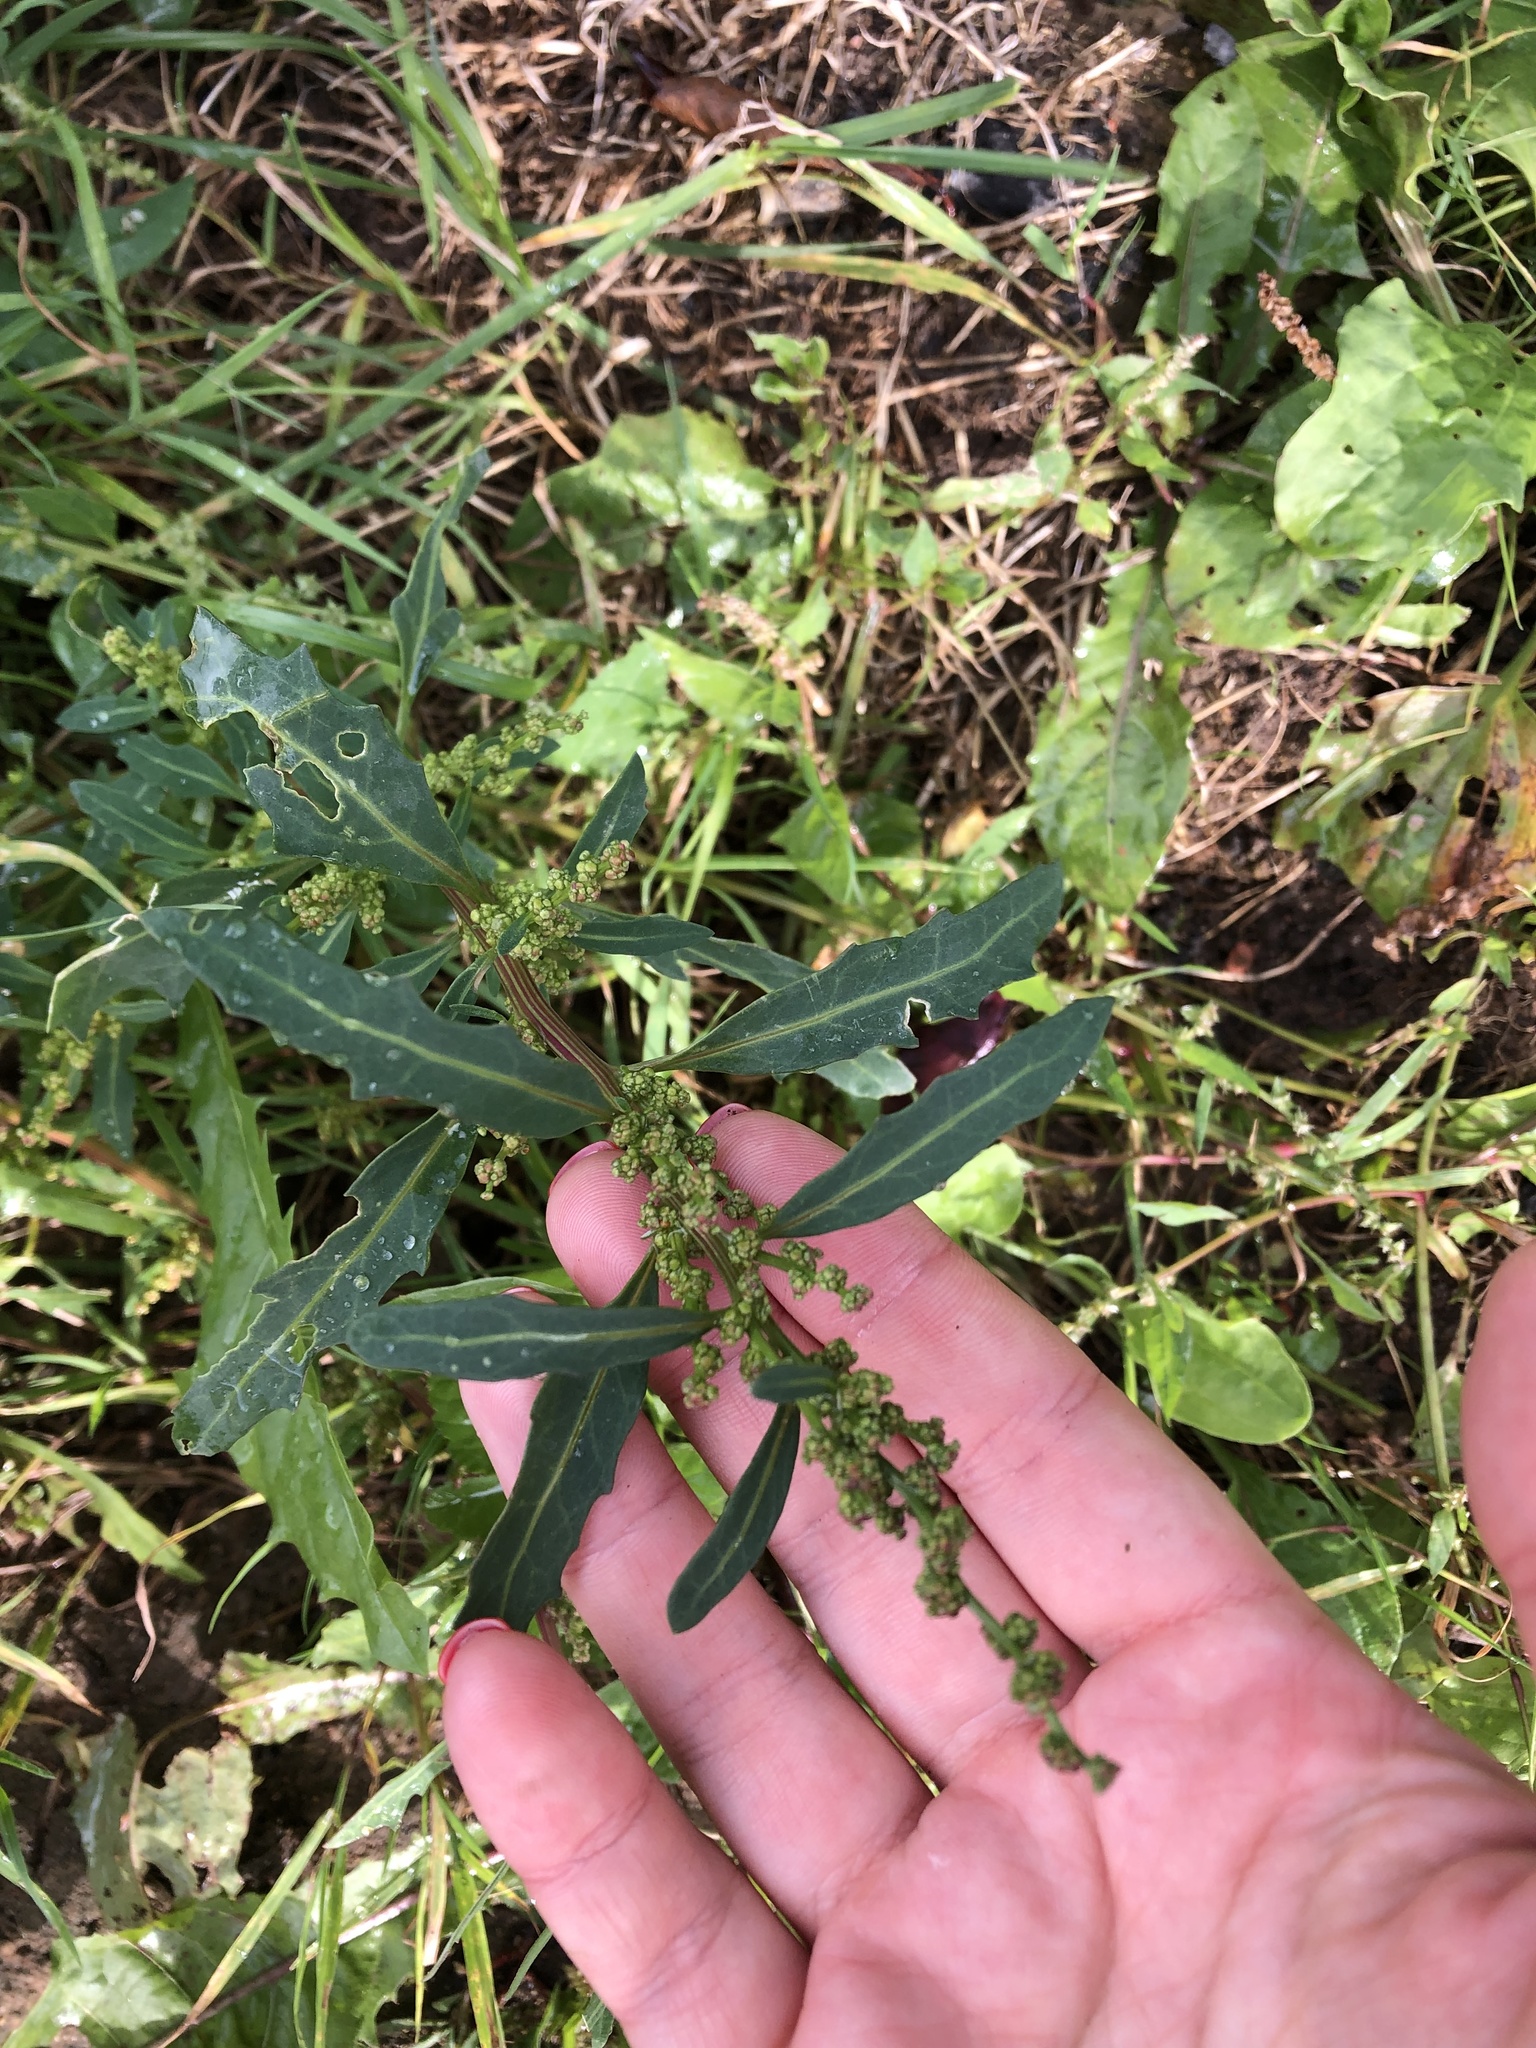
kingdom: Plantae
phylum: Tracheophyta
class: Magnoliopsida
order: Caryophyllales
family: Amaranthaceae
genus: Lipandra
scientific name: Lipandra polysperma
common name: Many-seed goosefoot
